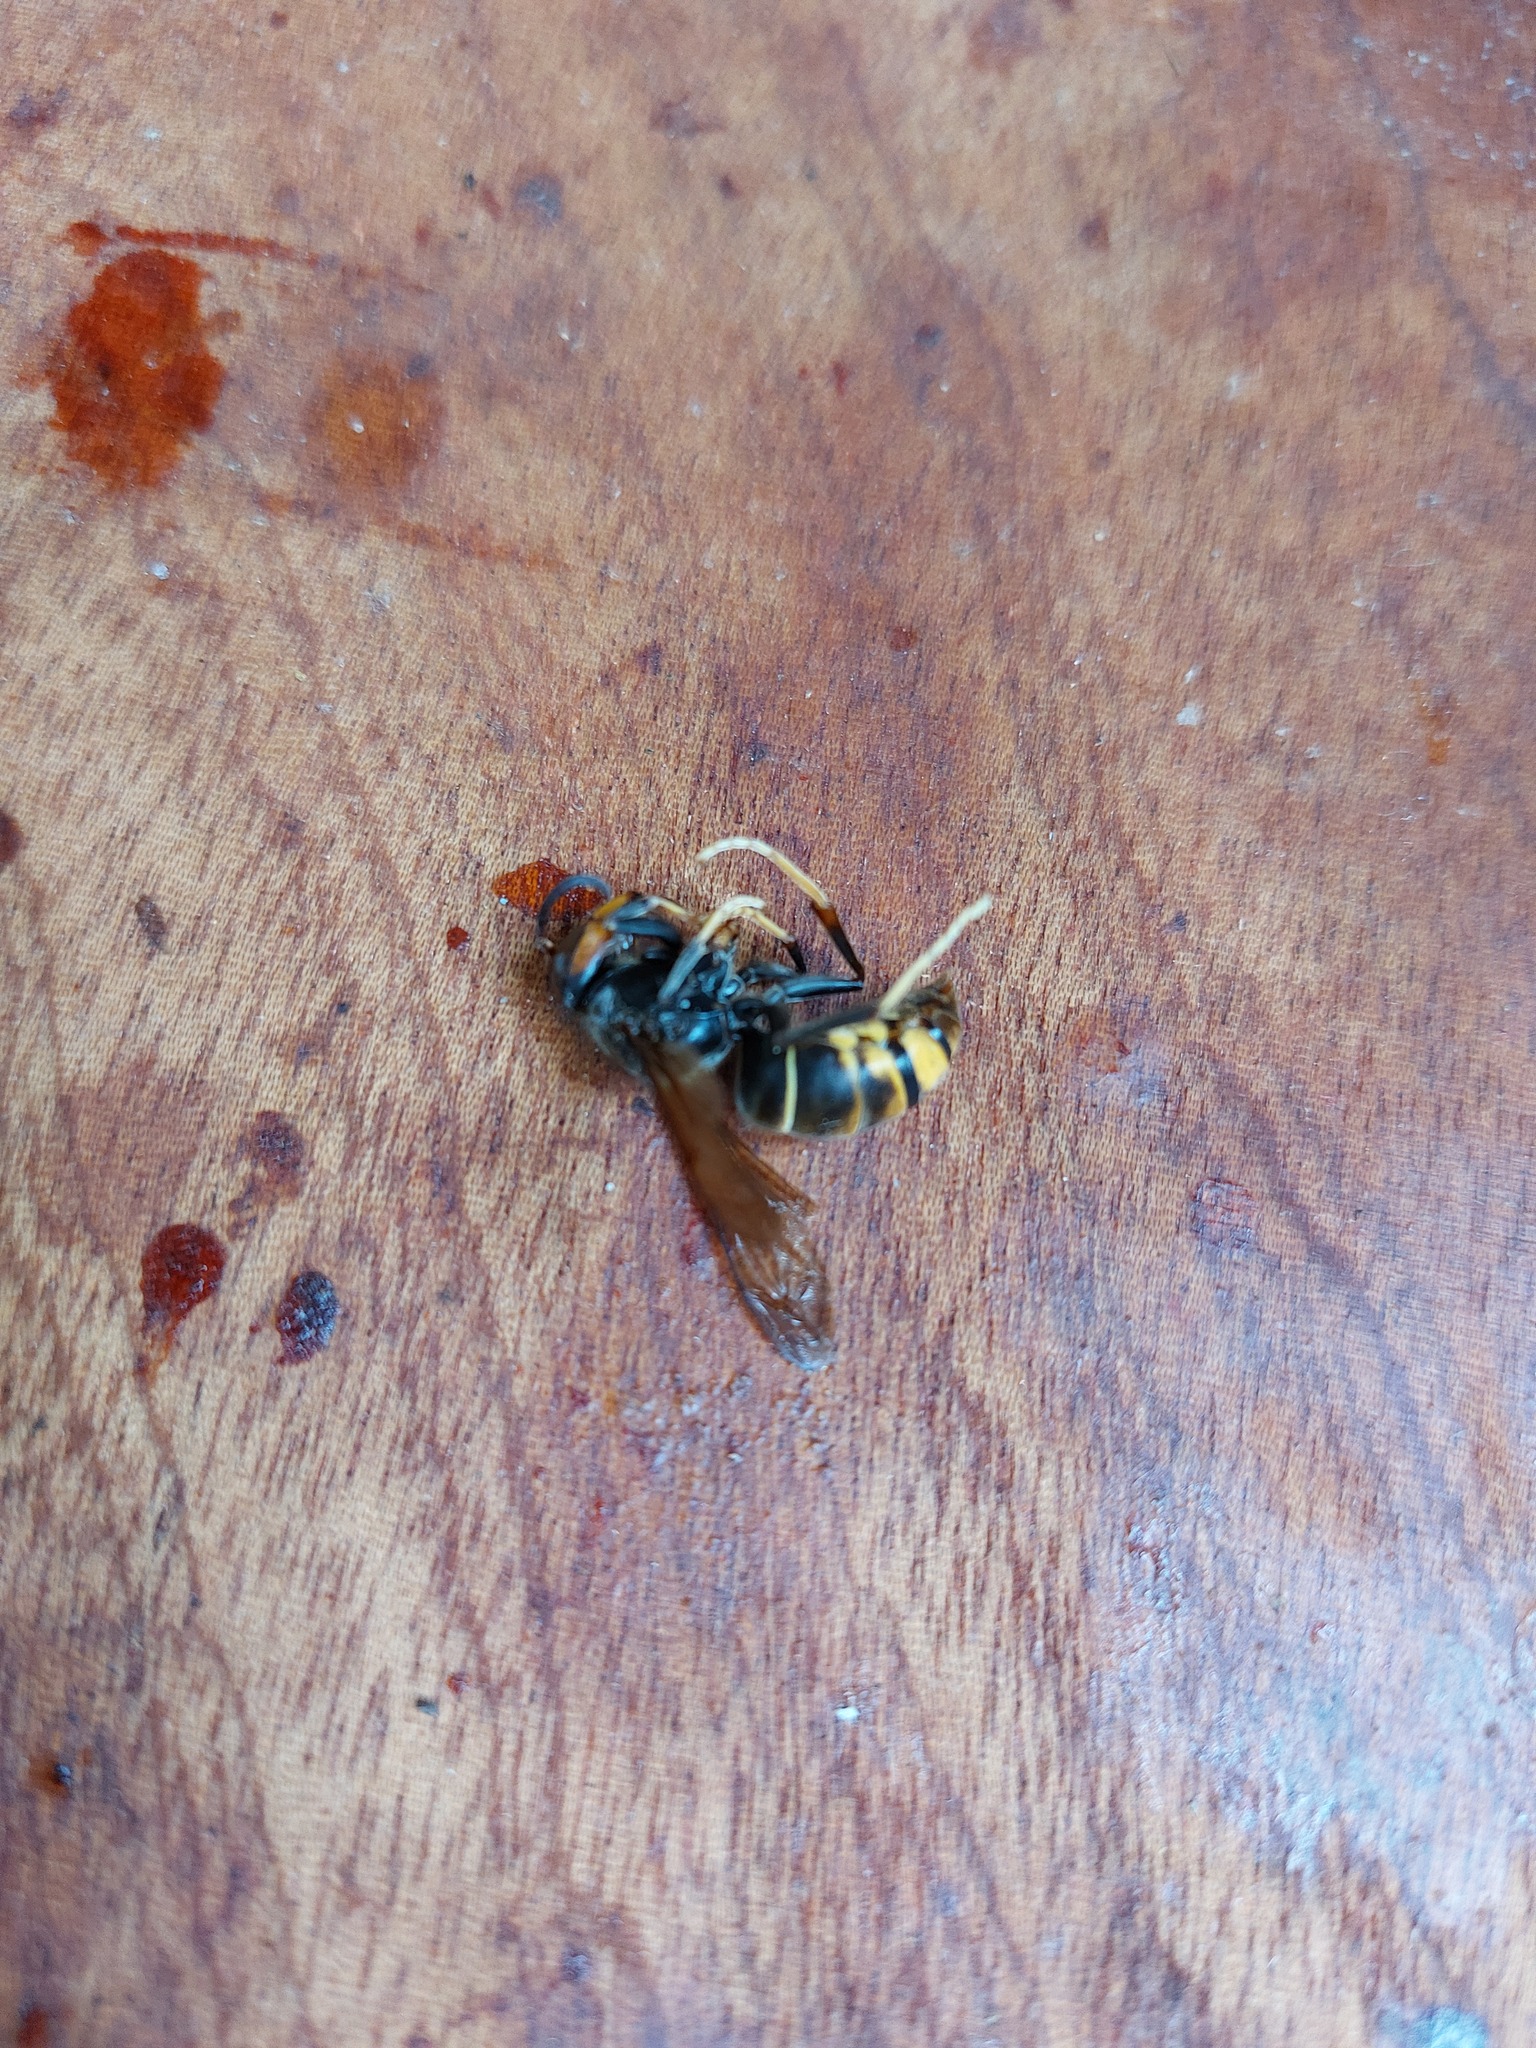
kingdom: Animalia
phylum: Arthropoda
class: Insecta
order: Hymenoptera
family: Vespidae
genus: Vespa
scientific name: Vespa velutina
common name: Asian hornet
